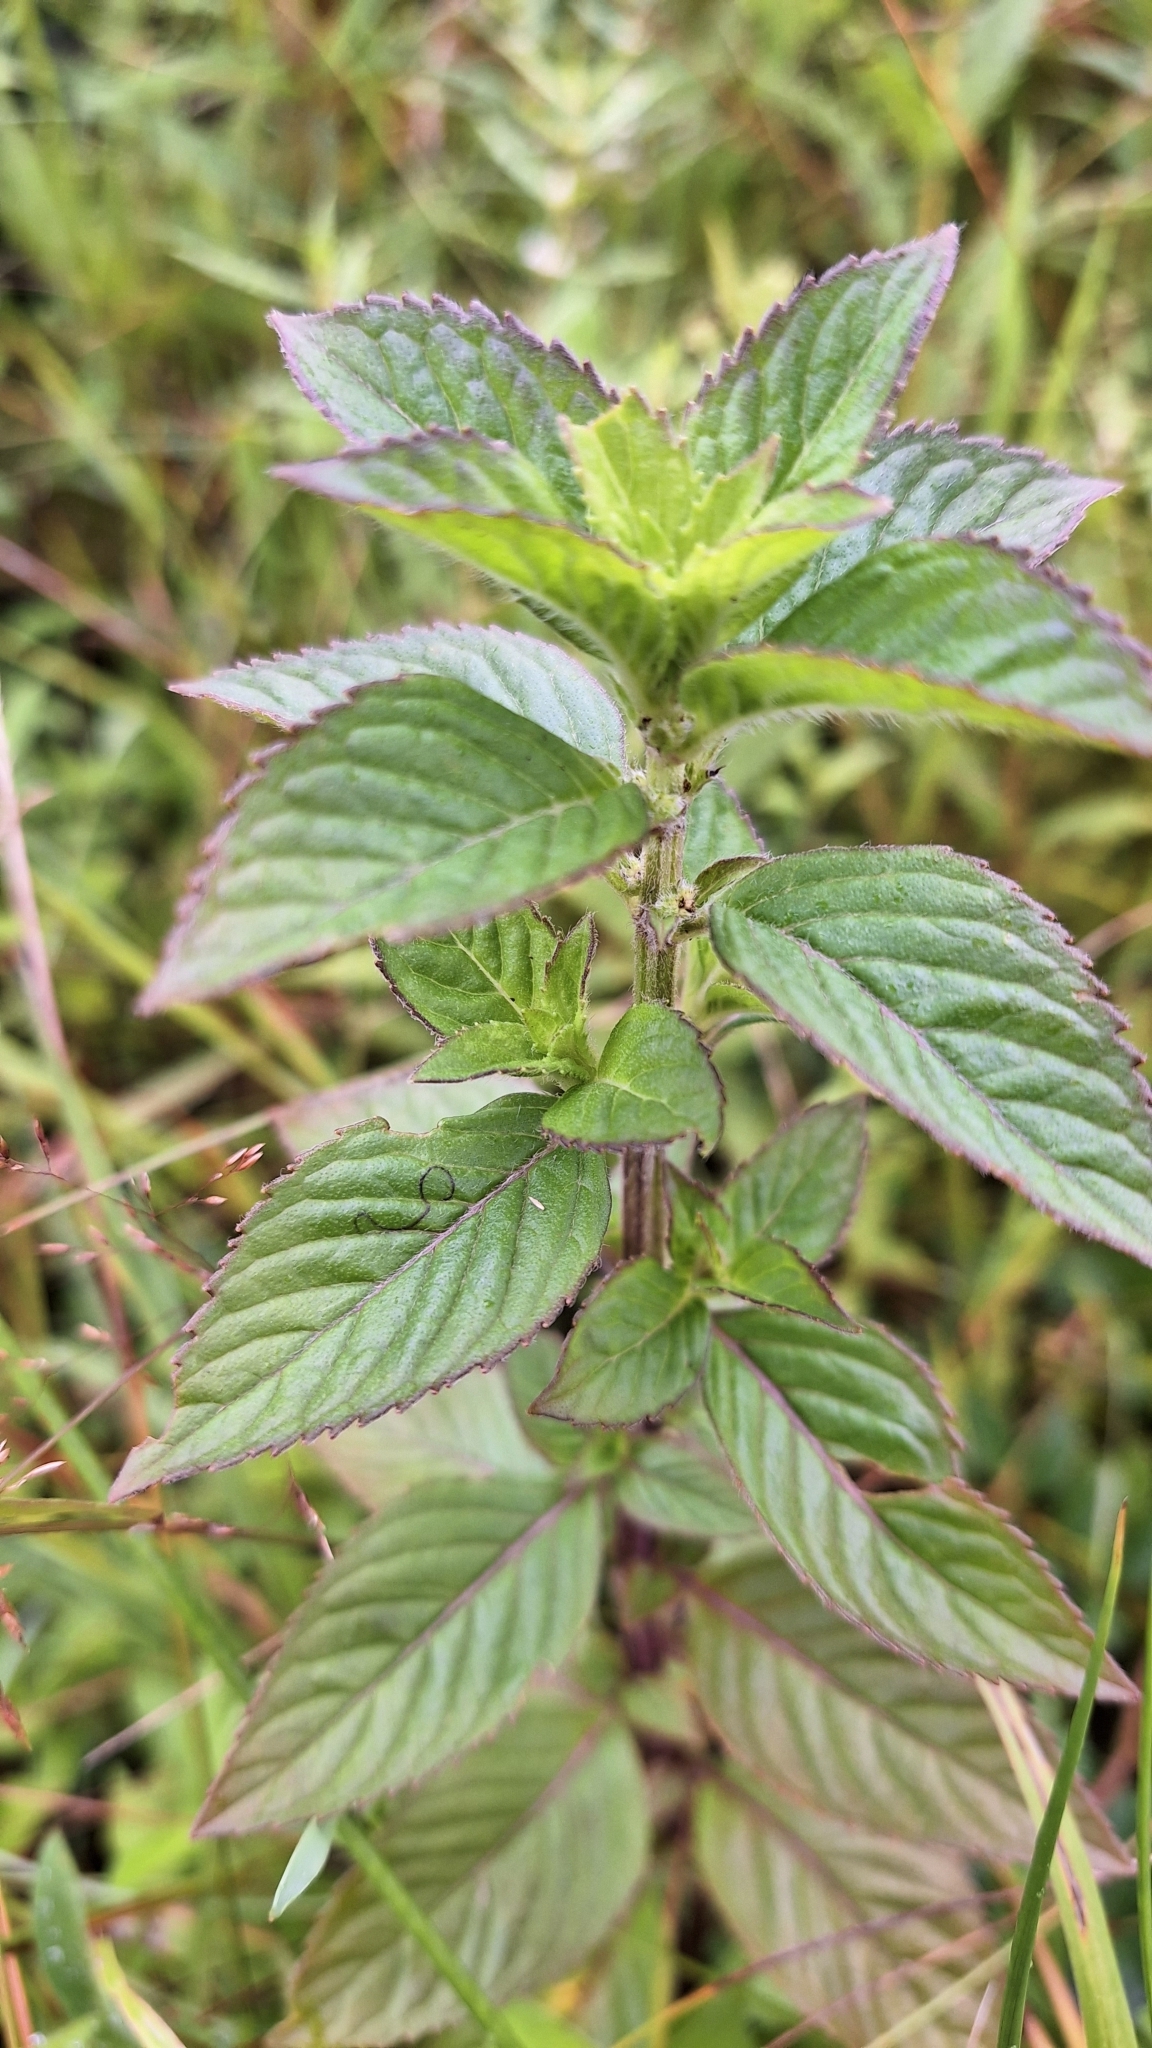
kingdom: Plantae
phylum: Tracheophyta
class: Magnoliopsida
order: Lamiales
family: Lamiaceae
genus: Mentha
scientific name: Mentha canadensis
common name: American corn mint
